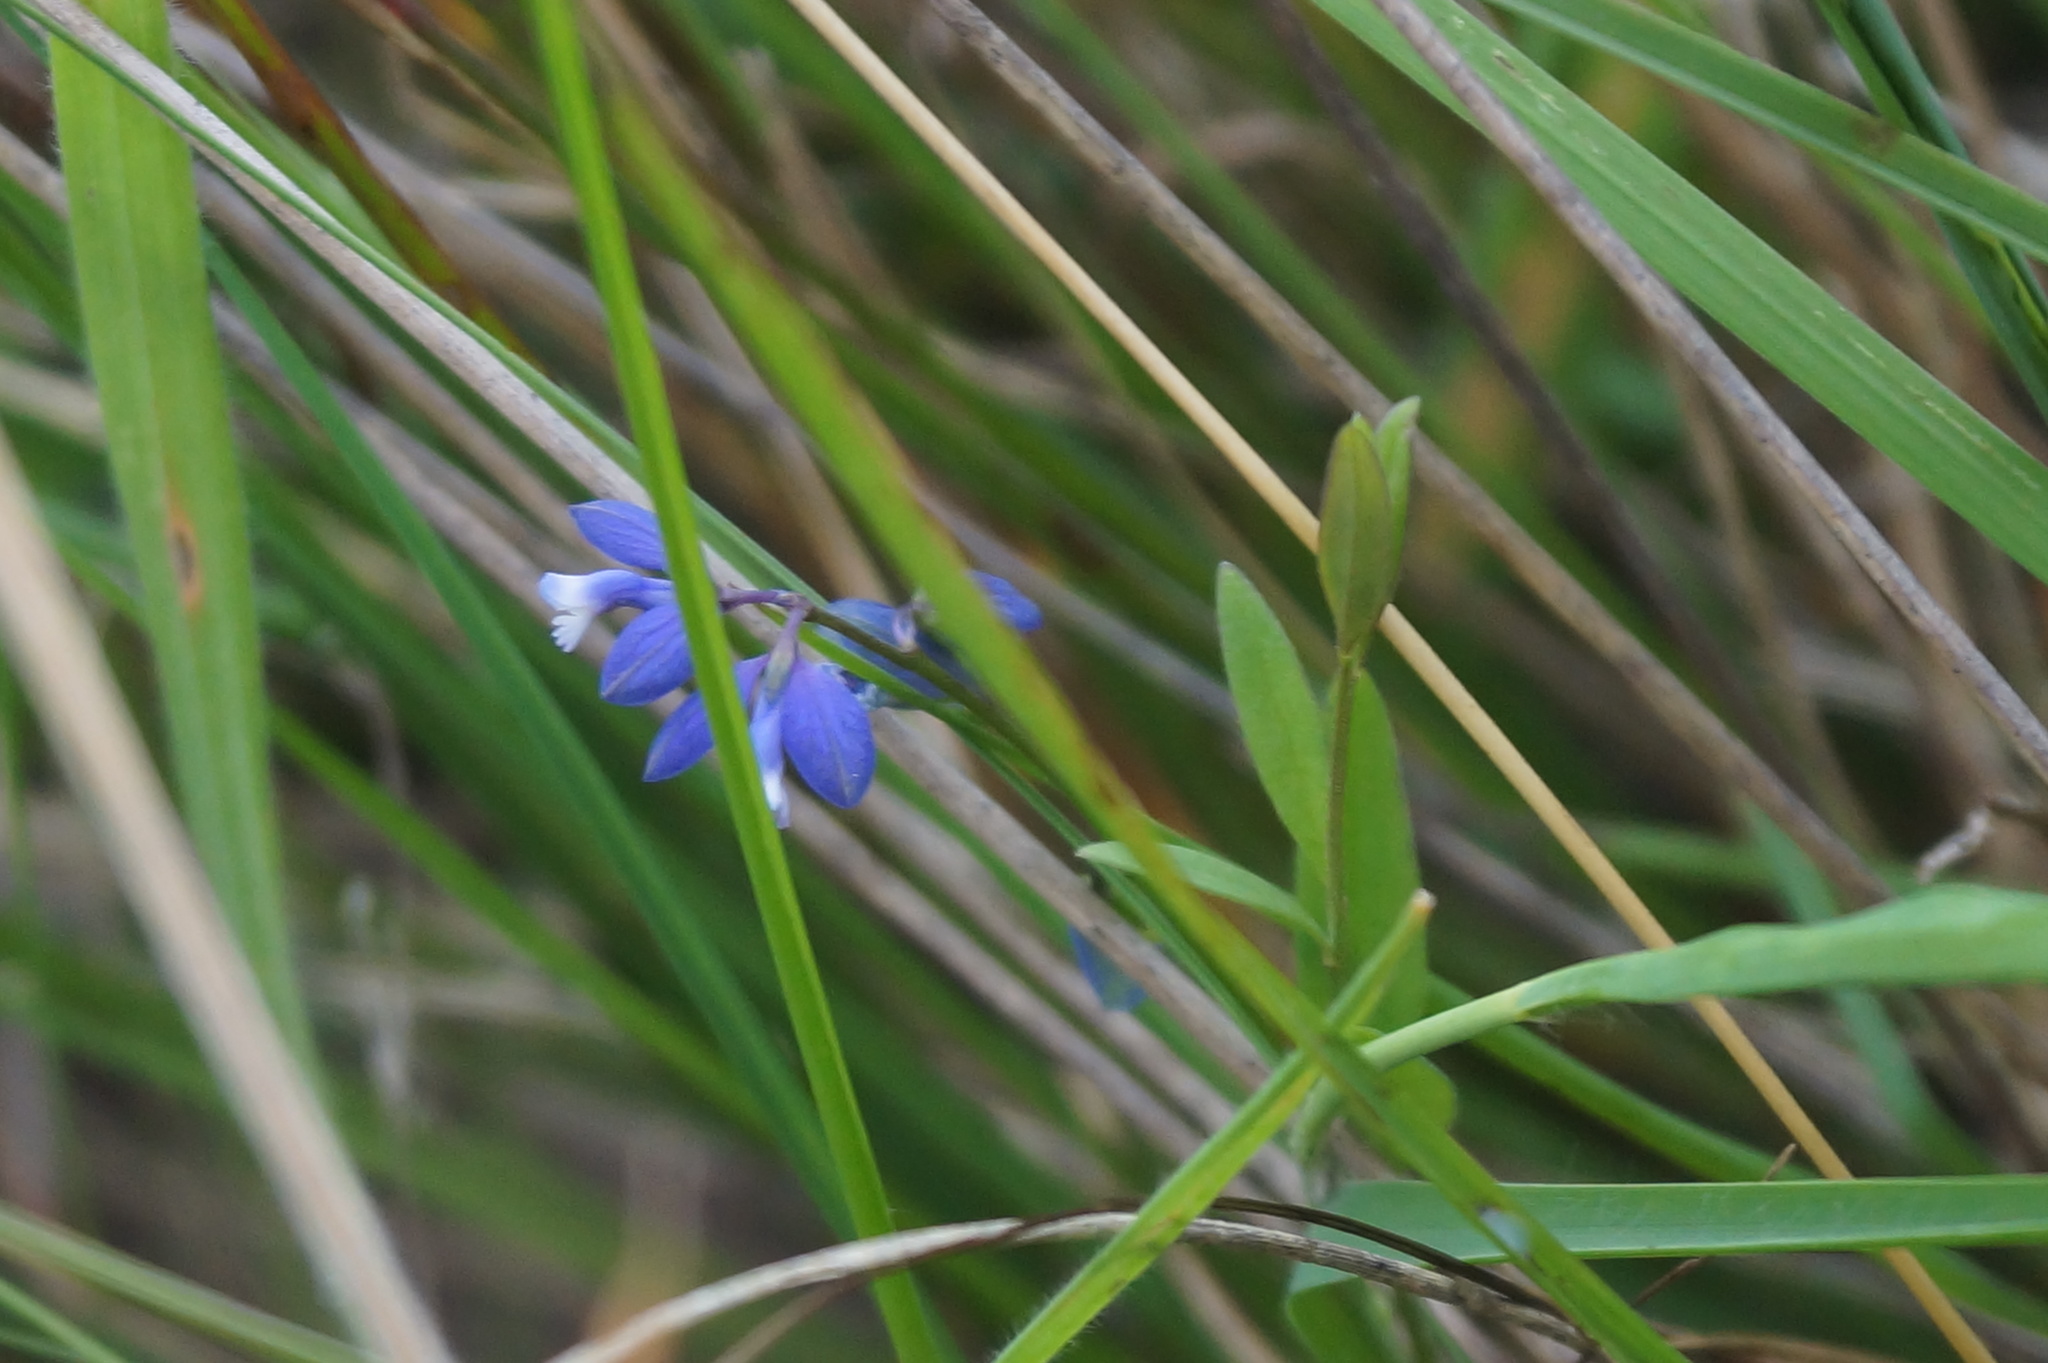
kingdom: Plantae
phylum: Tracheophyta
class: Magnoliopsida
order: Fabales
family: Polygalaceae
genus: Polygala
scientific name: Polygala serpyllifolia
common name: Heath milkwort
